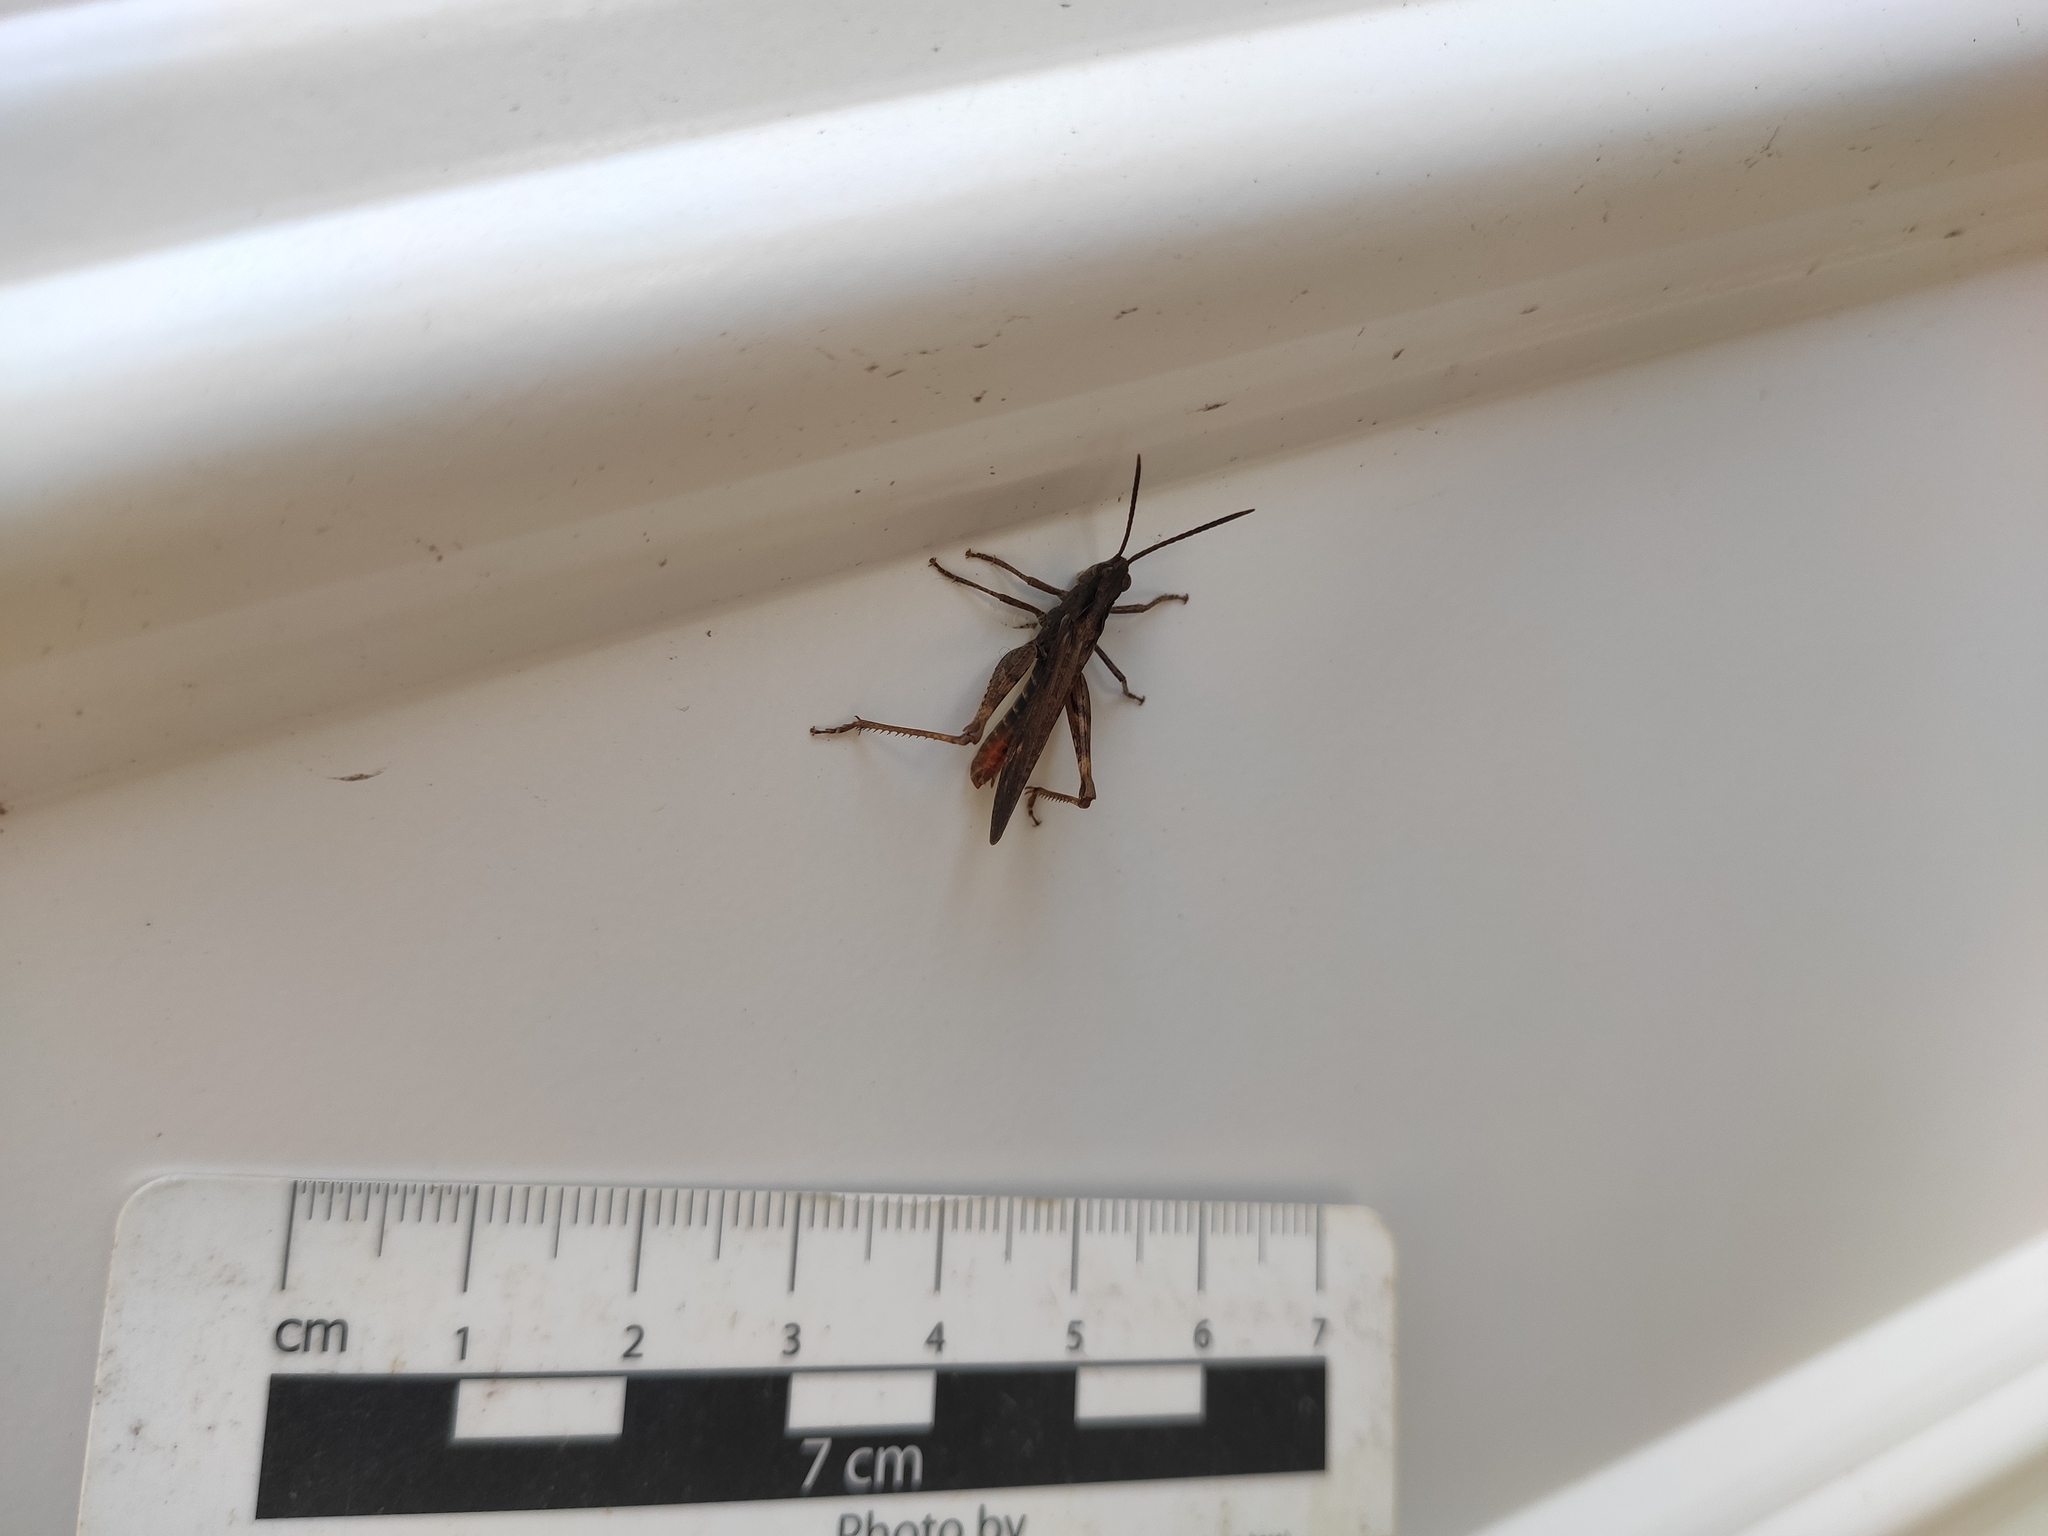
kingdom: Animalia
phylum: Arthropoda
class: Insecta
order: Orthoptera
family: Acrididae
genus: Omocestus
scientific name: Omocestus rufipes
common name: Woodland grasshopper
